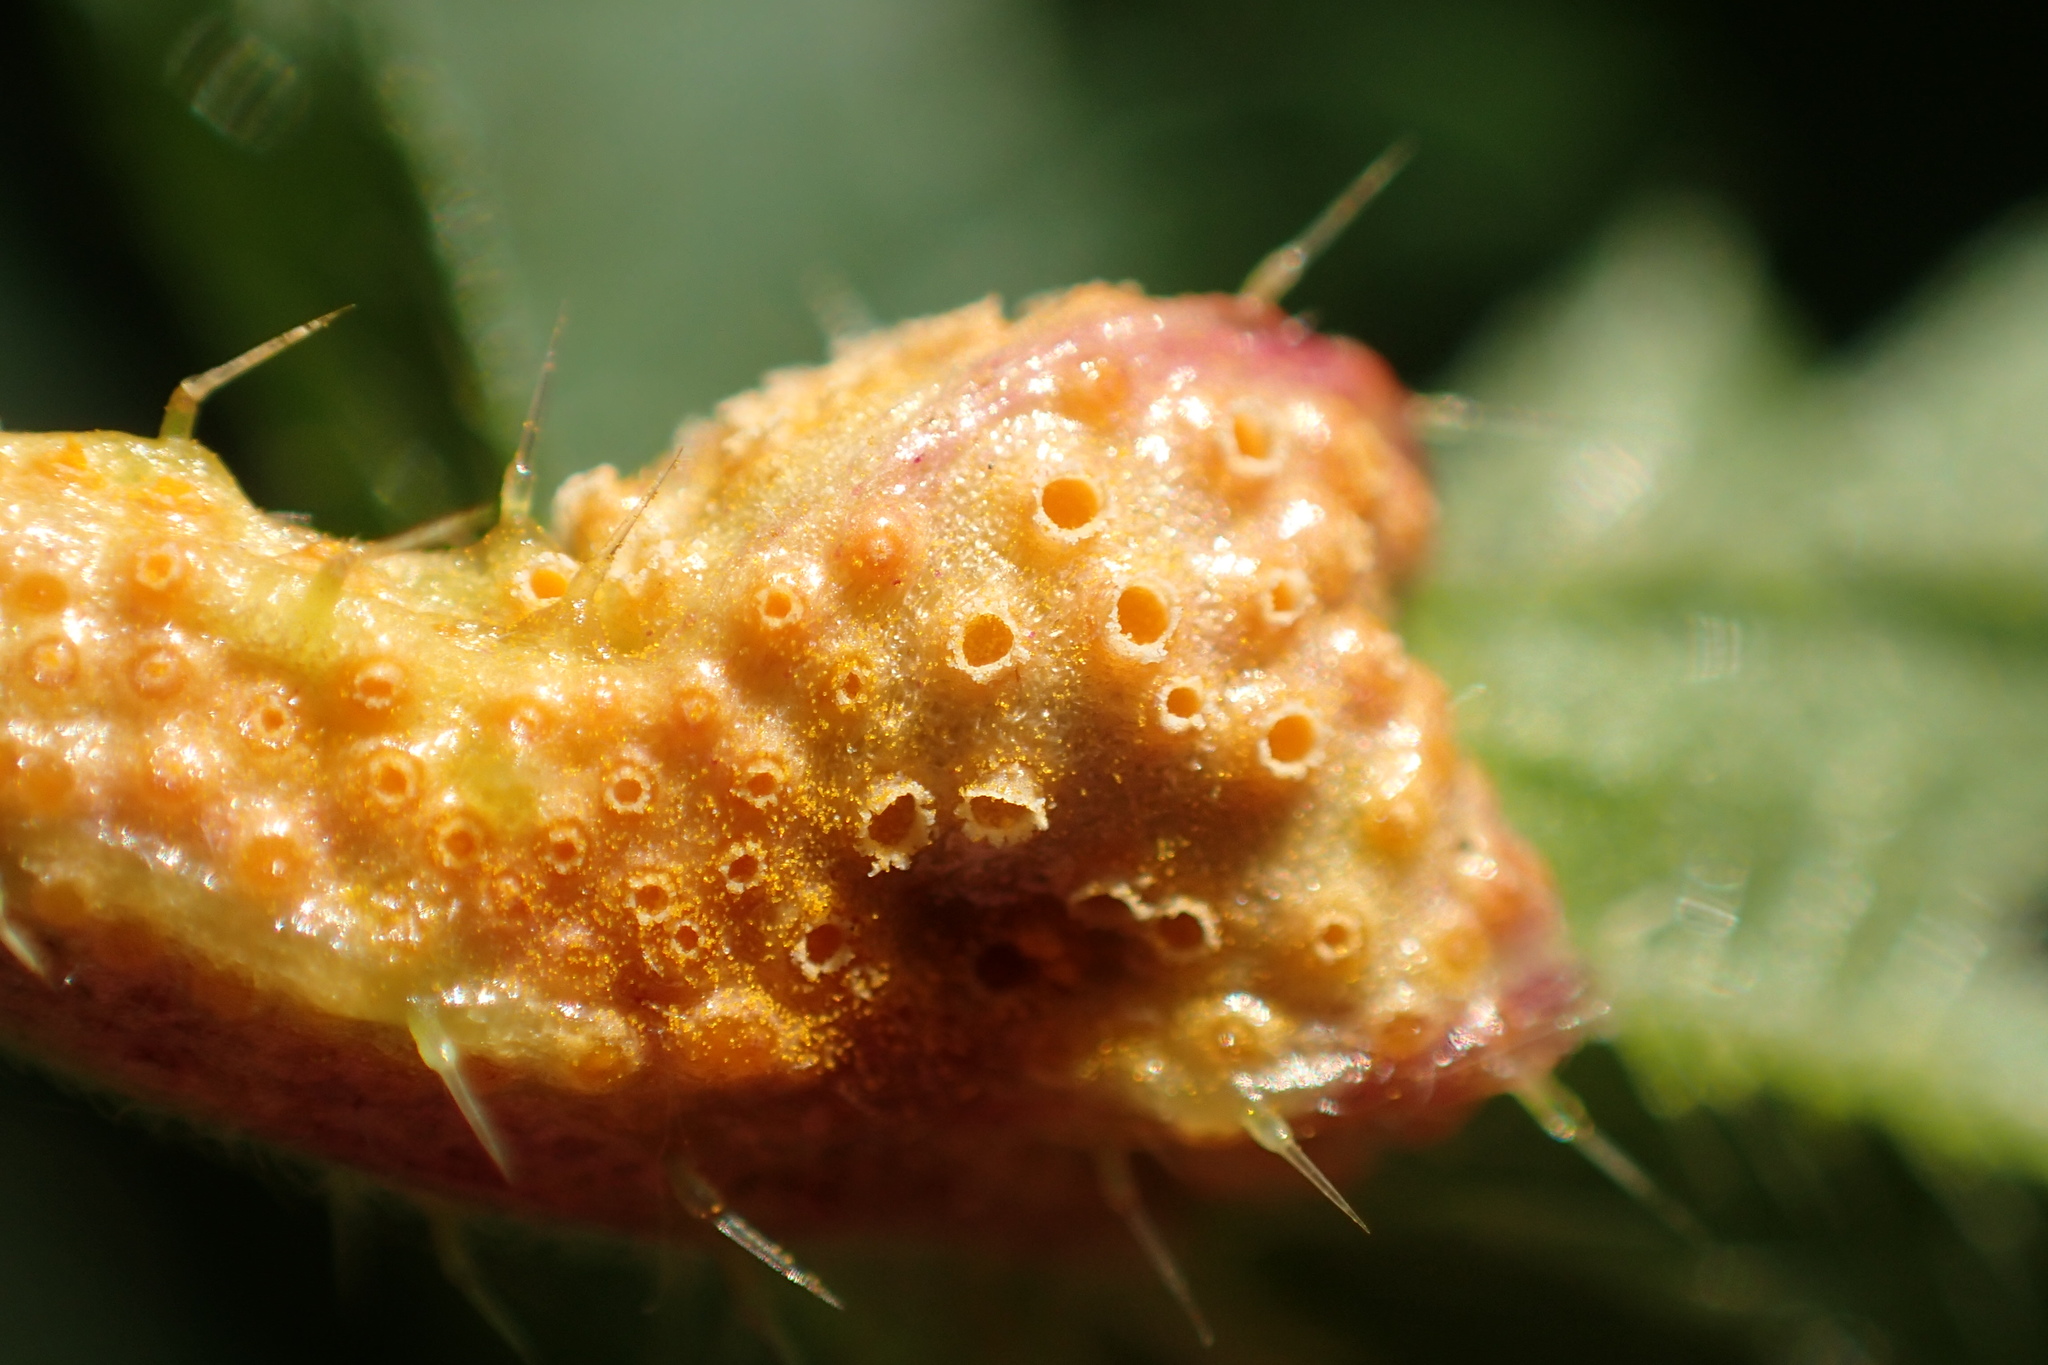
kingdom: Fungi
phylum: Basidiomycota
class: Pucciniomycetes
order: Pucciniales
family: Pucciniaceae
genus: Puccinia
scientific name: Puccinia urticata
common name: Nettle clustercup rust fungus
